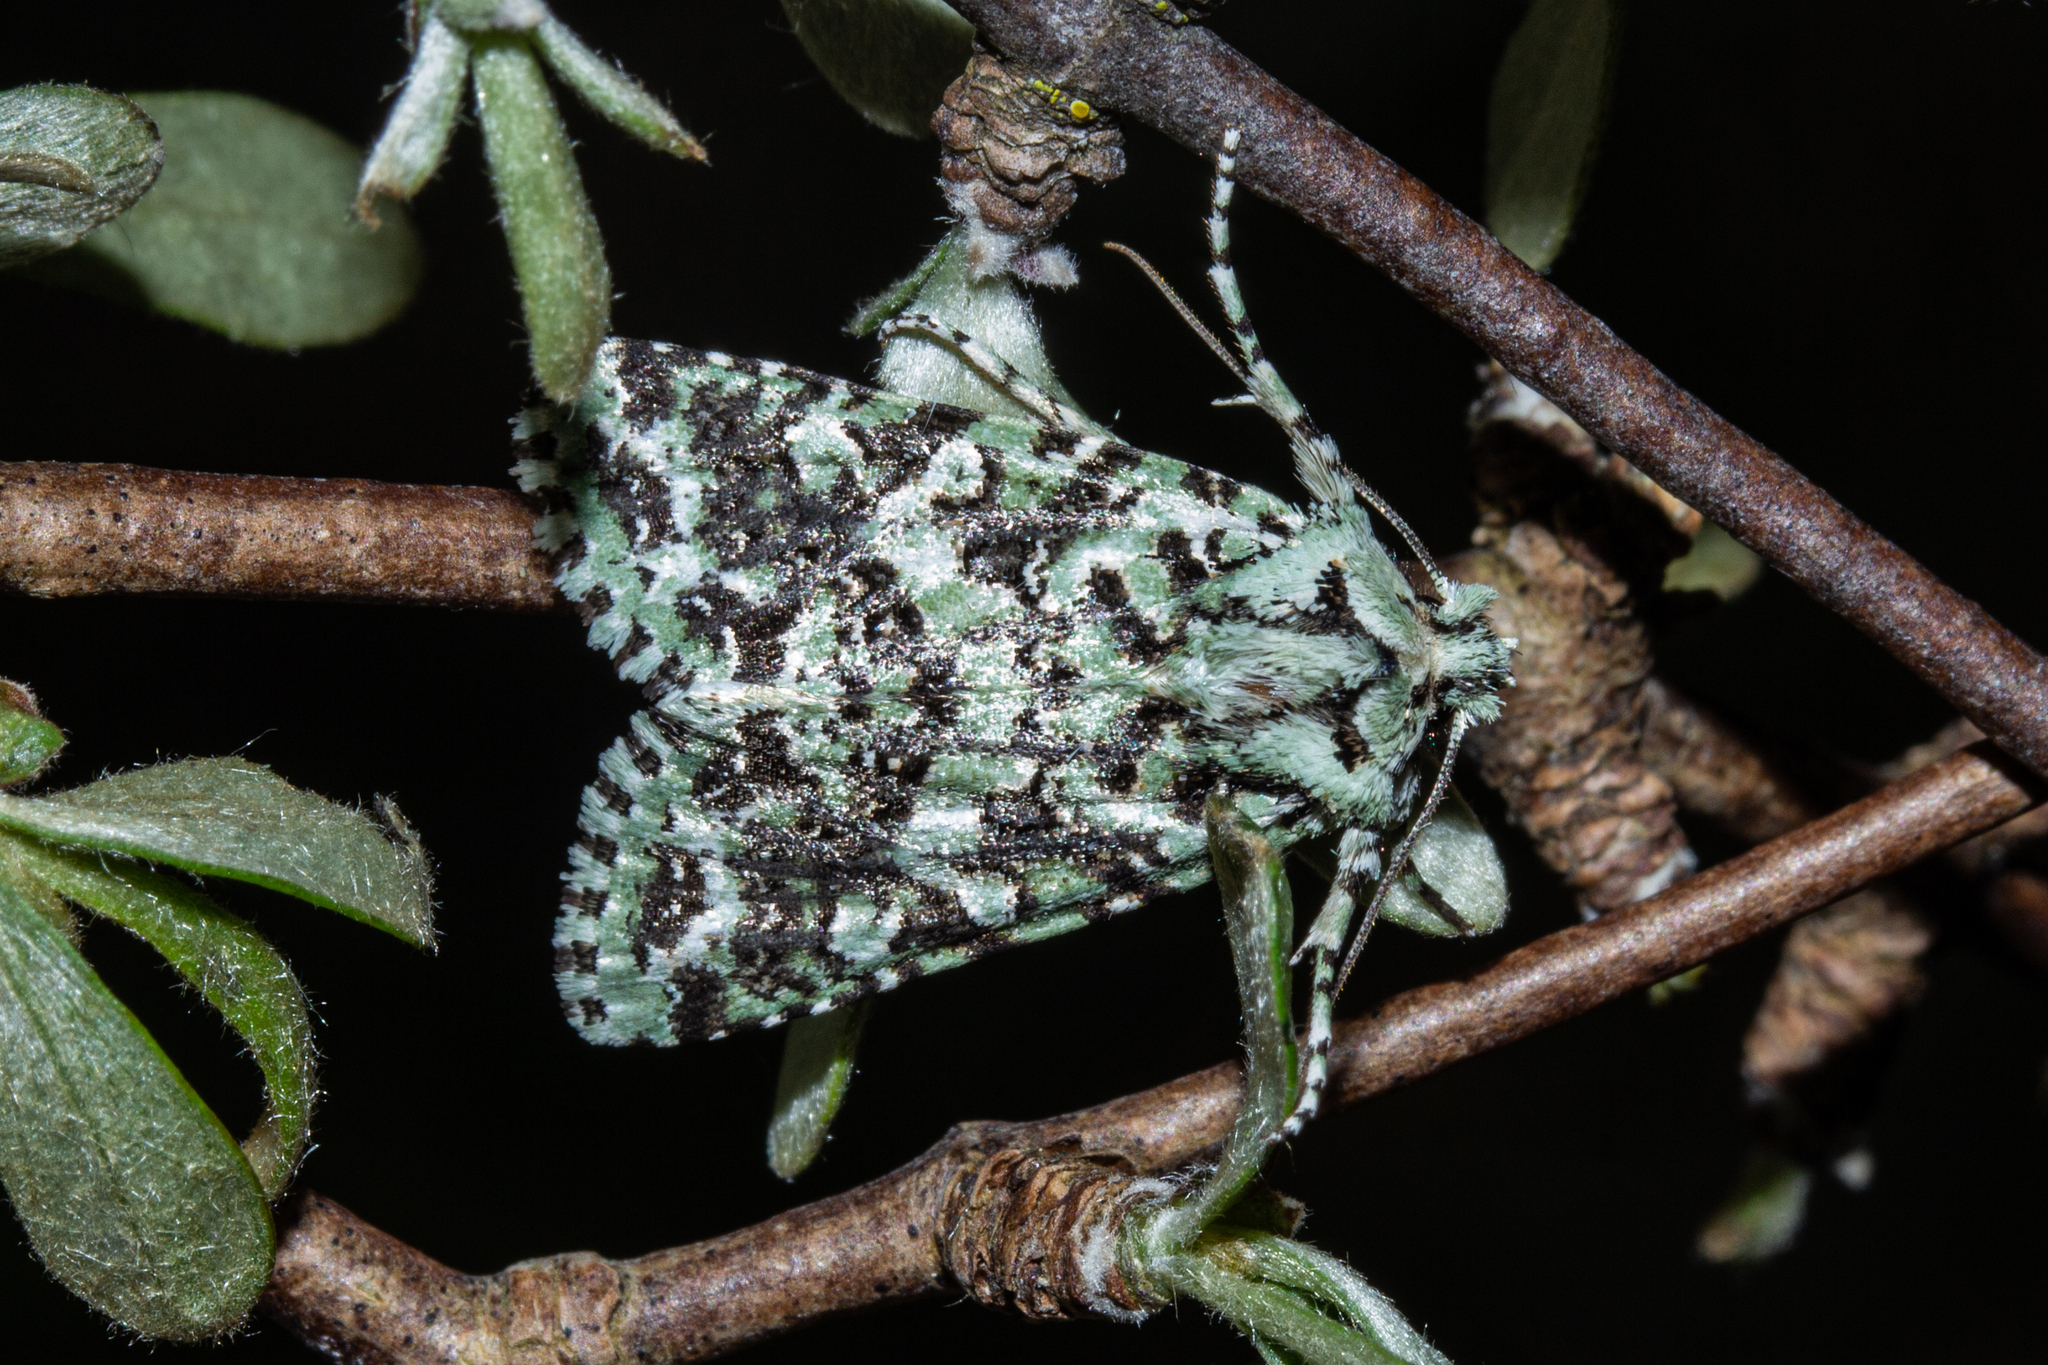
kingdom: Animalia
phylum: Arthropoda
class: Insecta
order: Lepidoptera
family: Noctuidae
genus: Meterana
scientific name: Meterana
